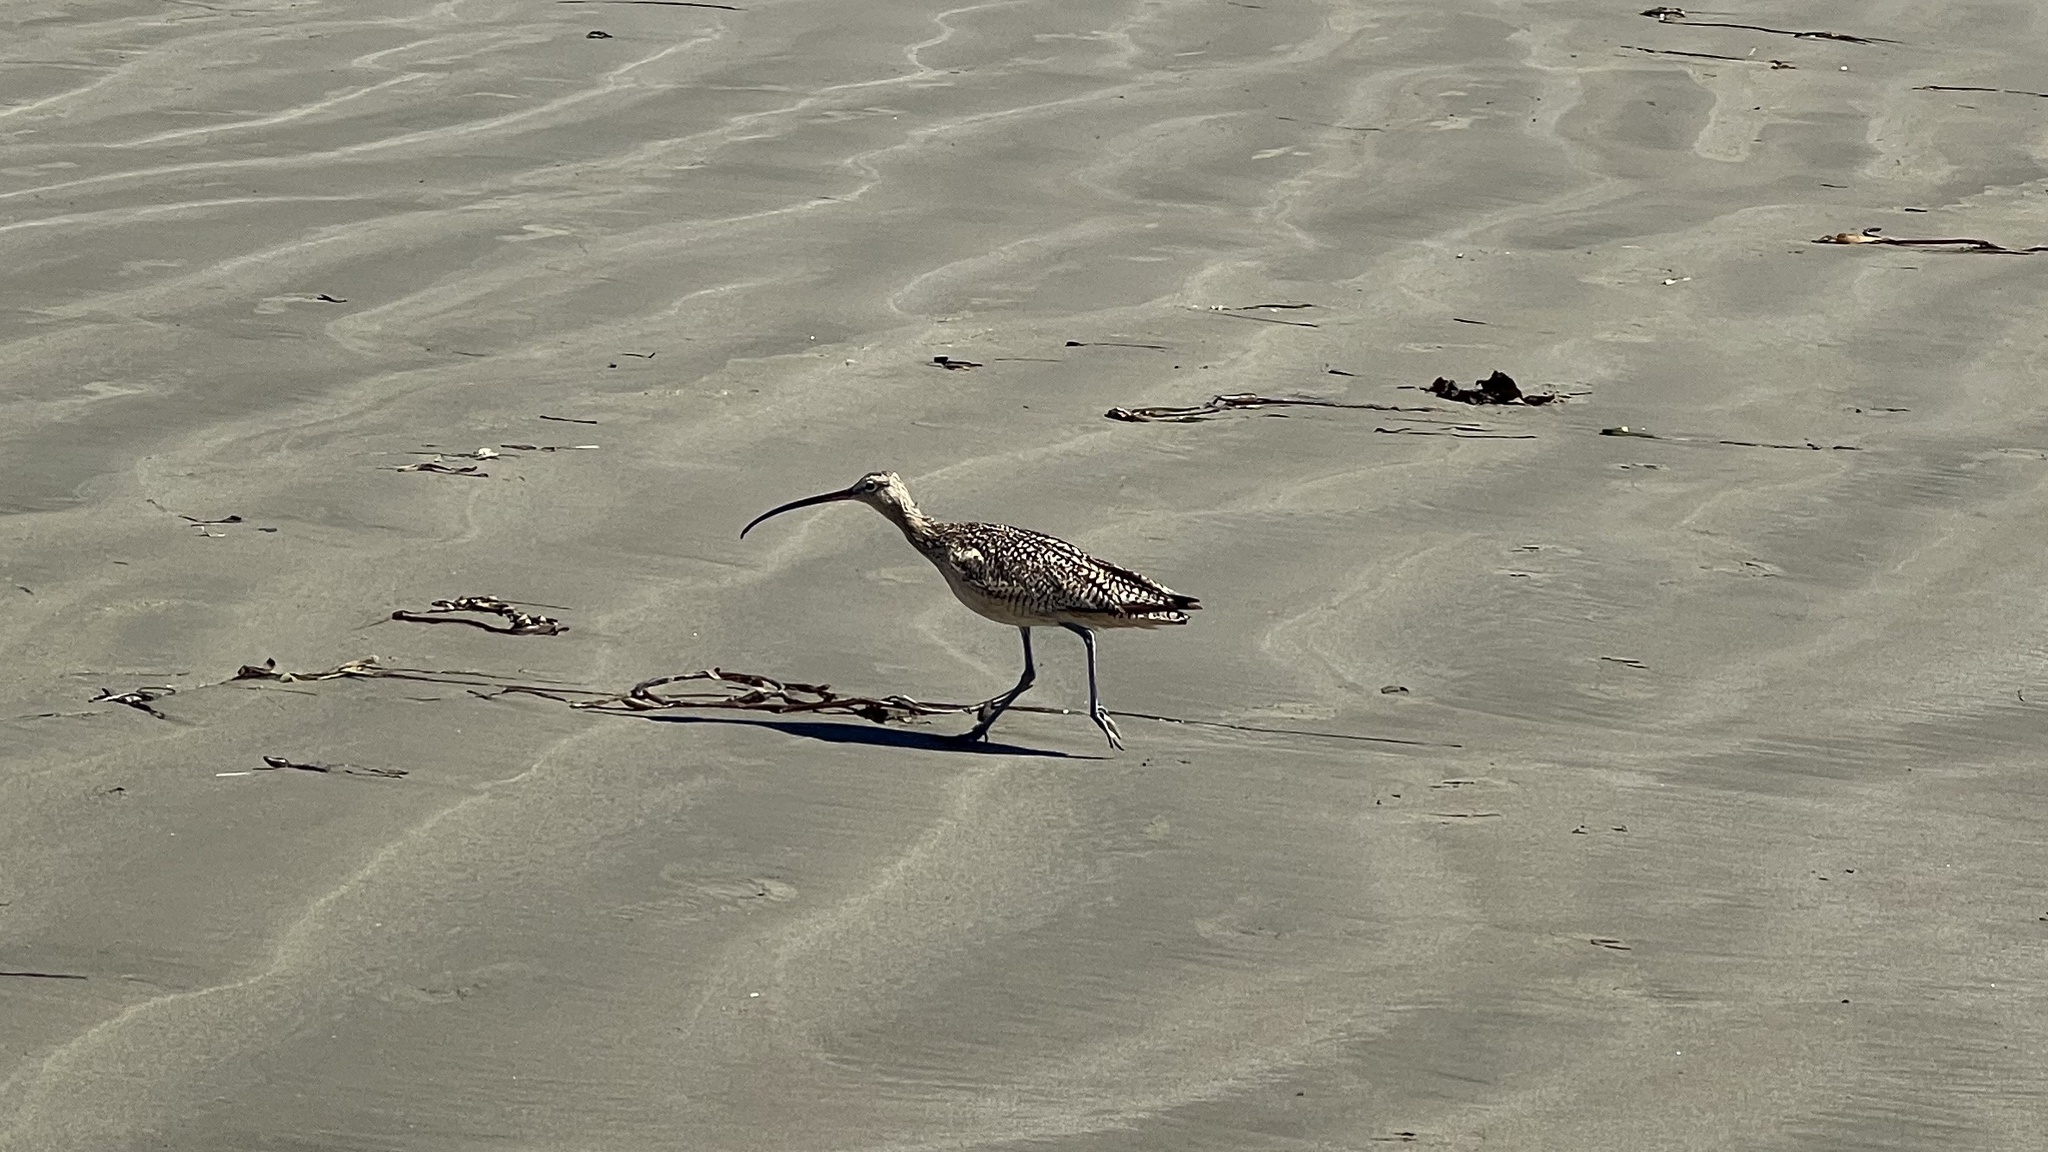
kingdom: Animalia
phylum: Chordata
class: Aves
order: Charadriiformes
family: Scolopacidae
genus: Numenius
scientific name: Numenius americanus
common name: Long-billed curlew
